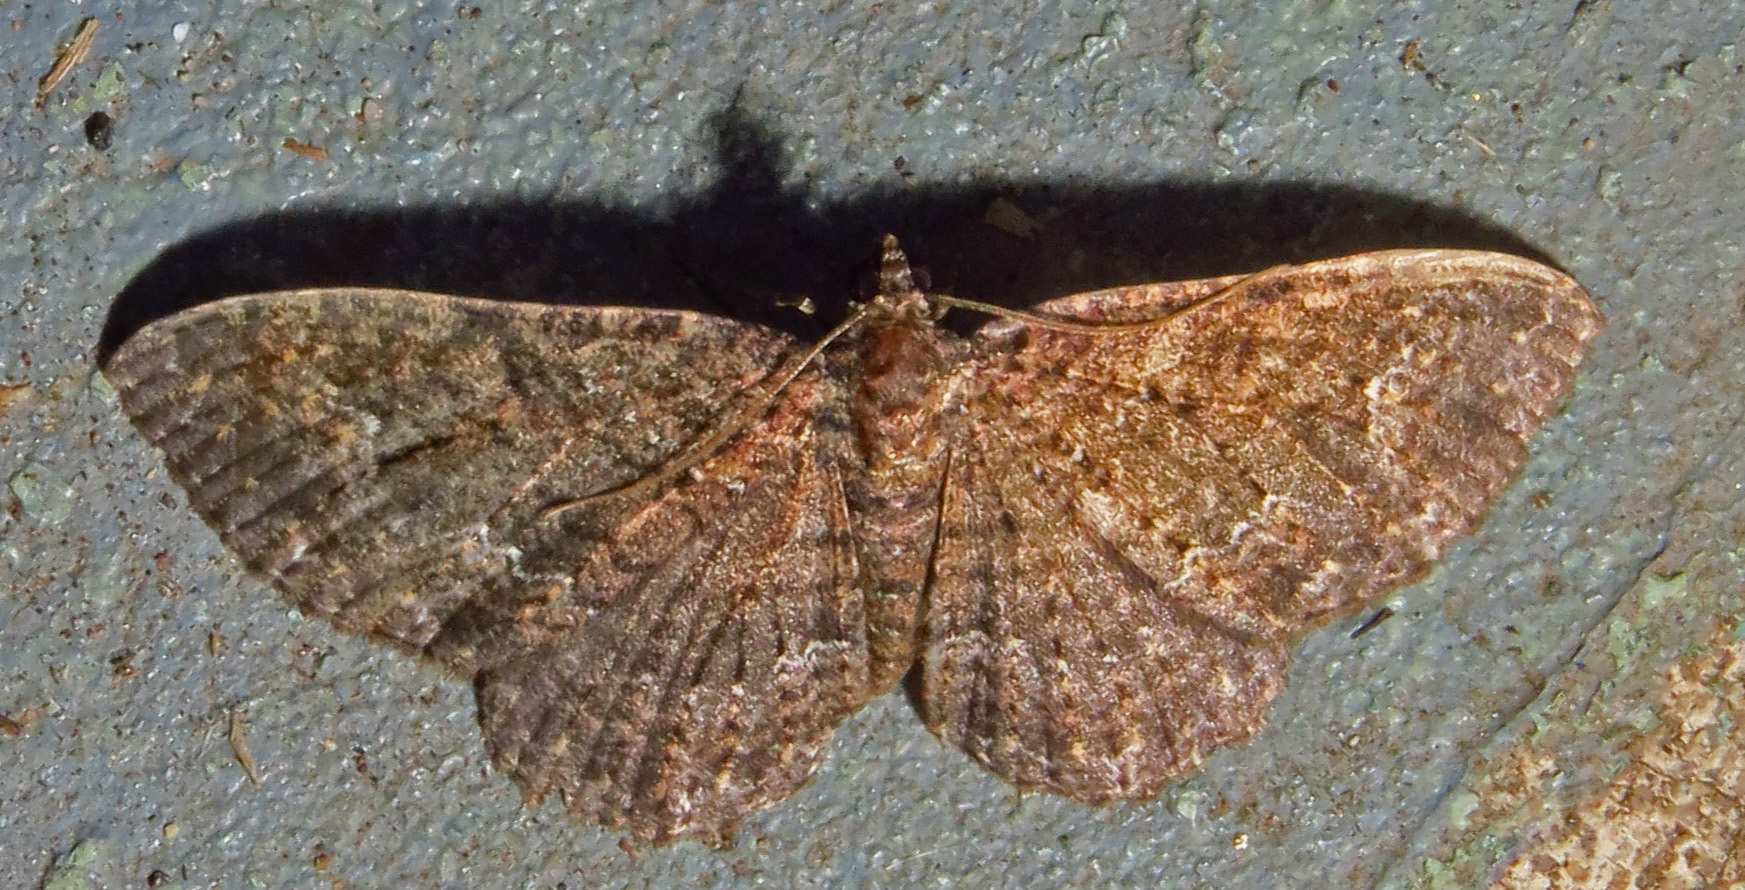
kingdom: Animalia
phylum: Arthropoda
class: Insecta
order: Lepidoptera
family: Geometridae
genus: Disclisioprocta
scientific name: Disclisioprocta stellata
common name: Somber carpet
